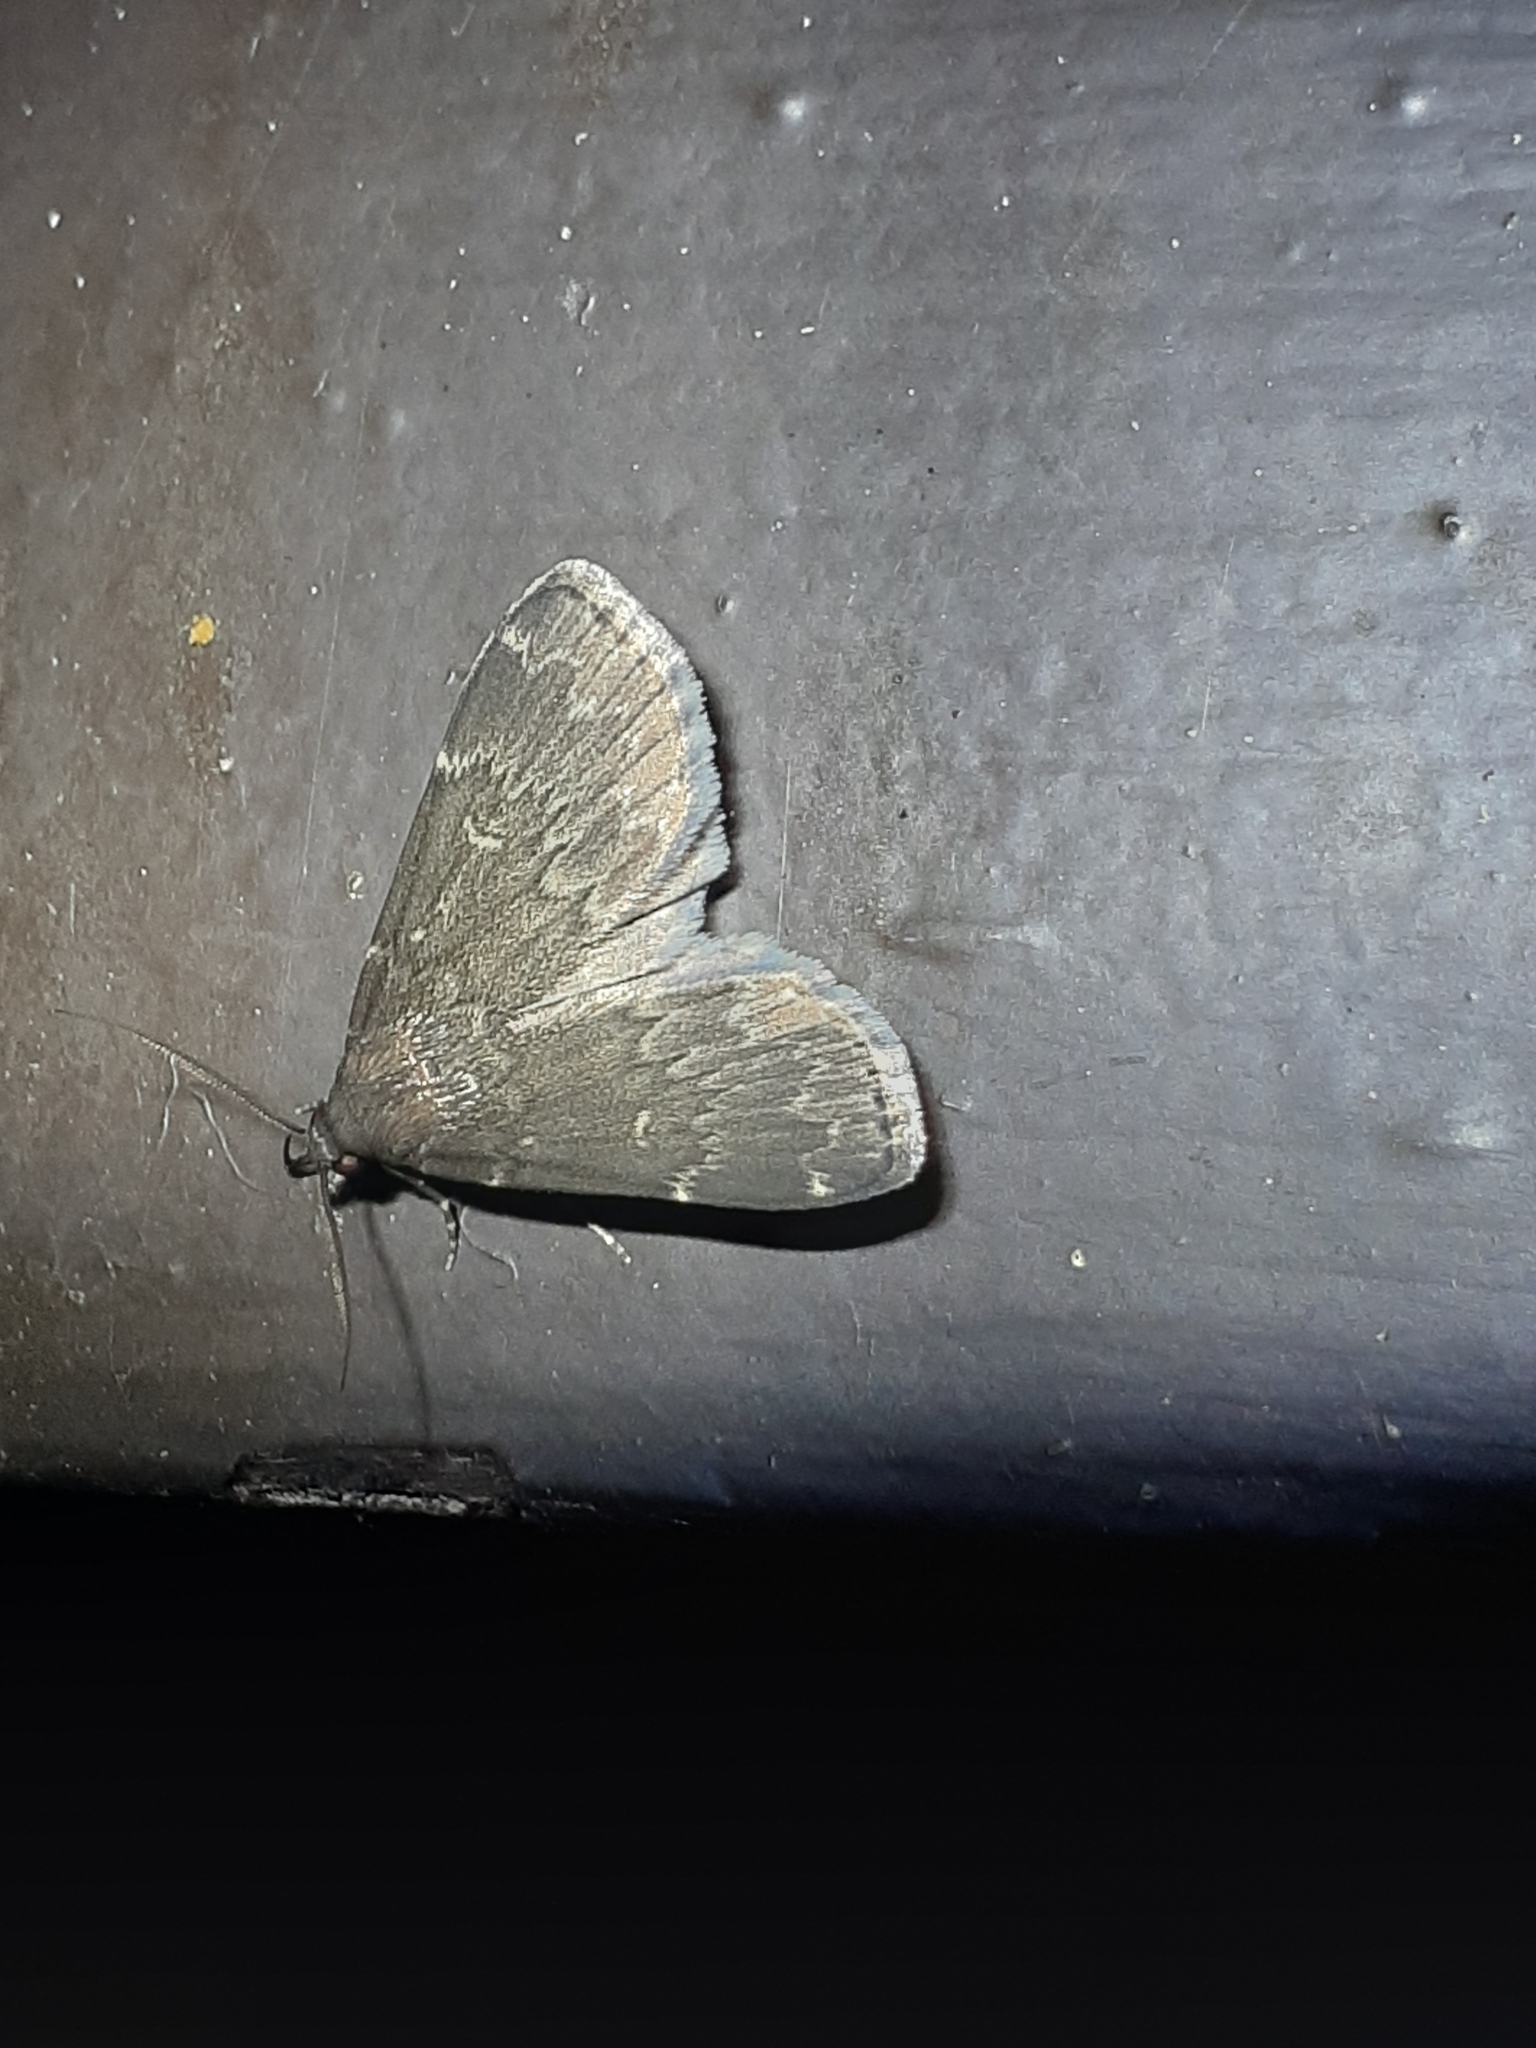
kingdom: Animalia
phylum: Arthropoda
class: Insecta
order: Lepidoptera
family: Erebidae
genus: Idia
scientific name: Idia lubricalis
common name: Twin-striped tabby
